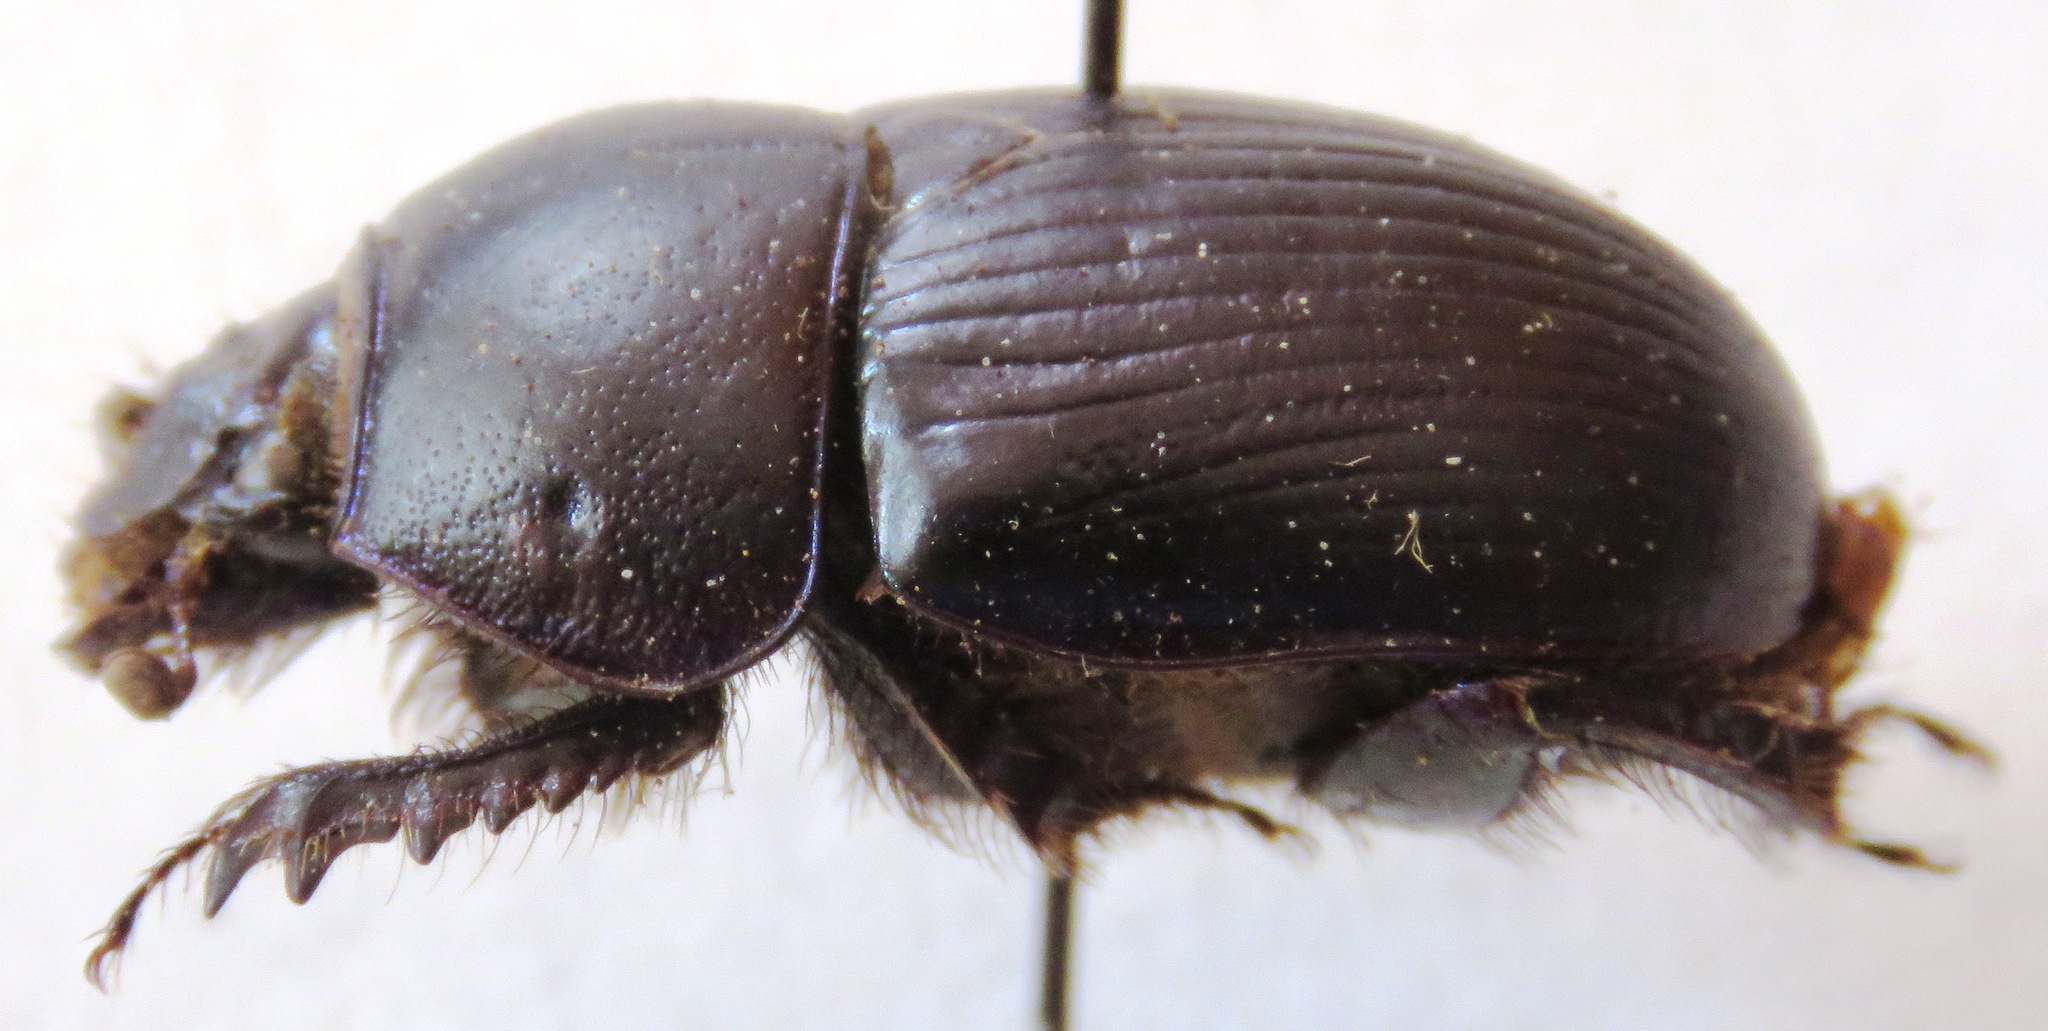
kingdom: Animalia
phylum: Arthropoda
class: Insecta
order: Coleoptera
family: Geotrupidae
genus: Geotrupes
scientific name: Geotrupes spiniger
